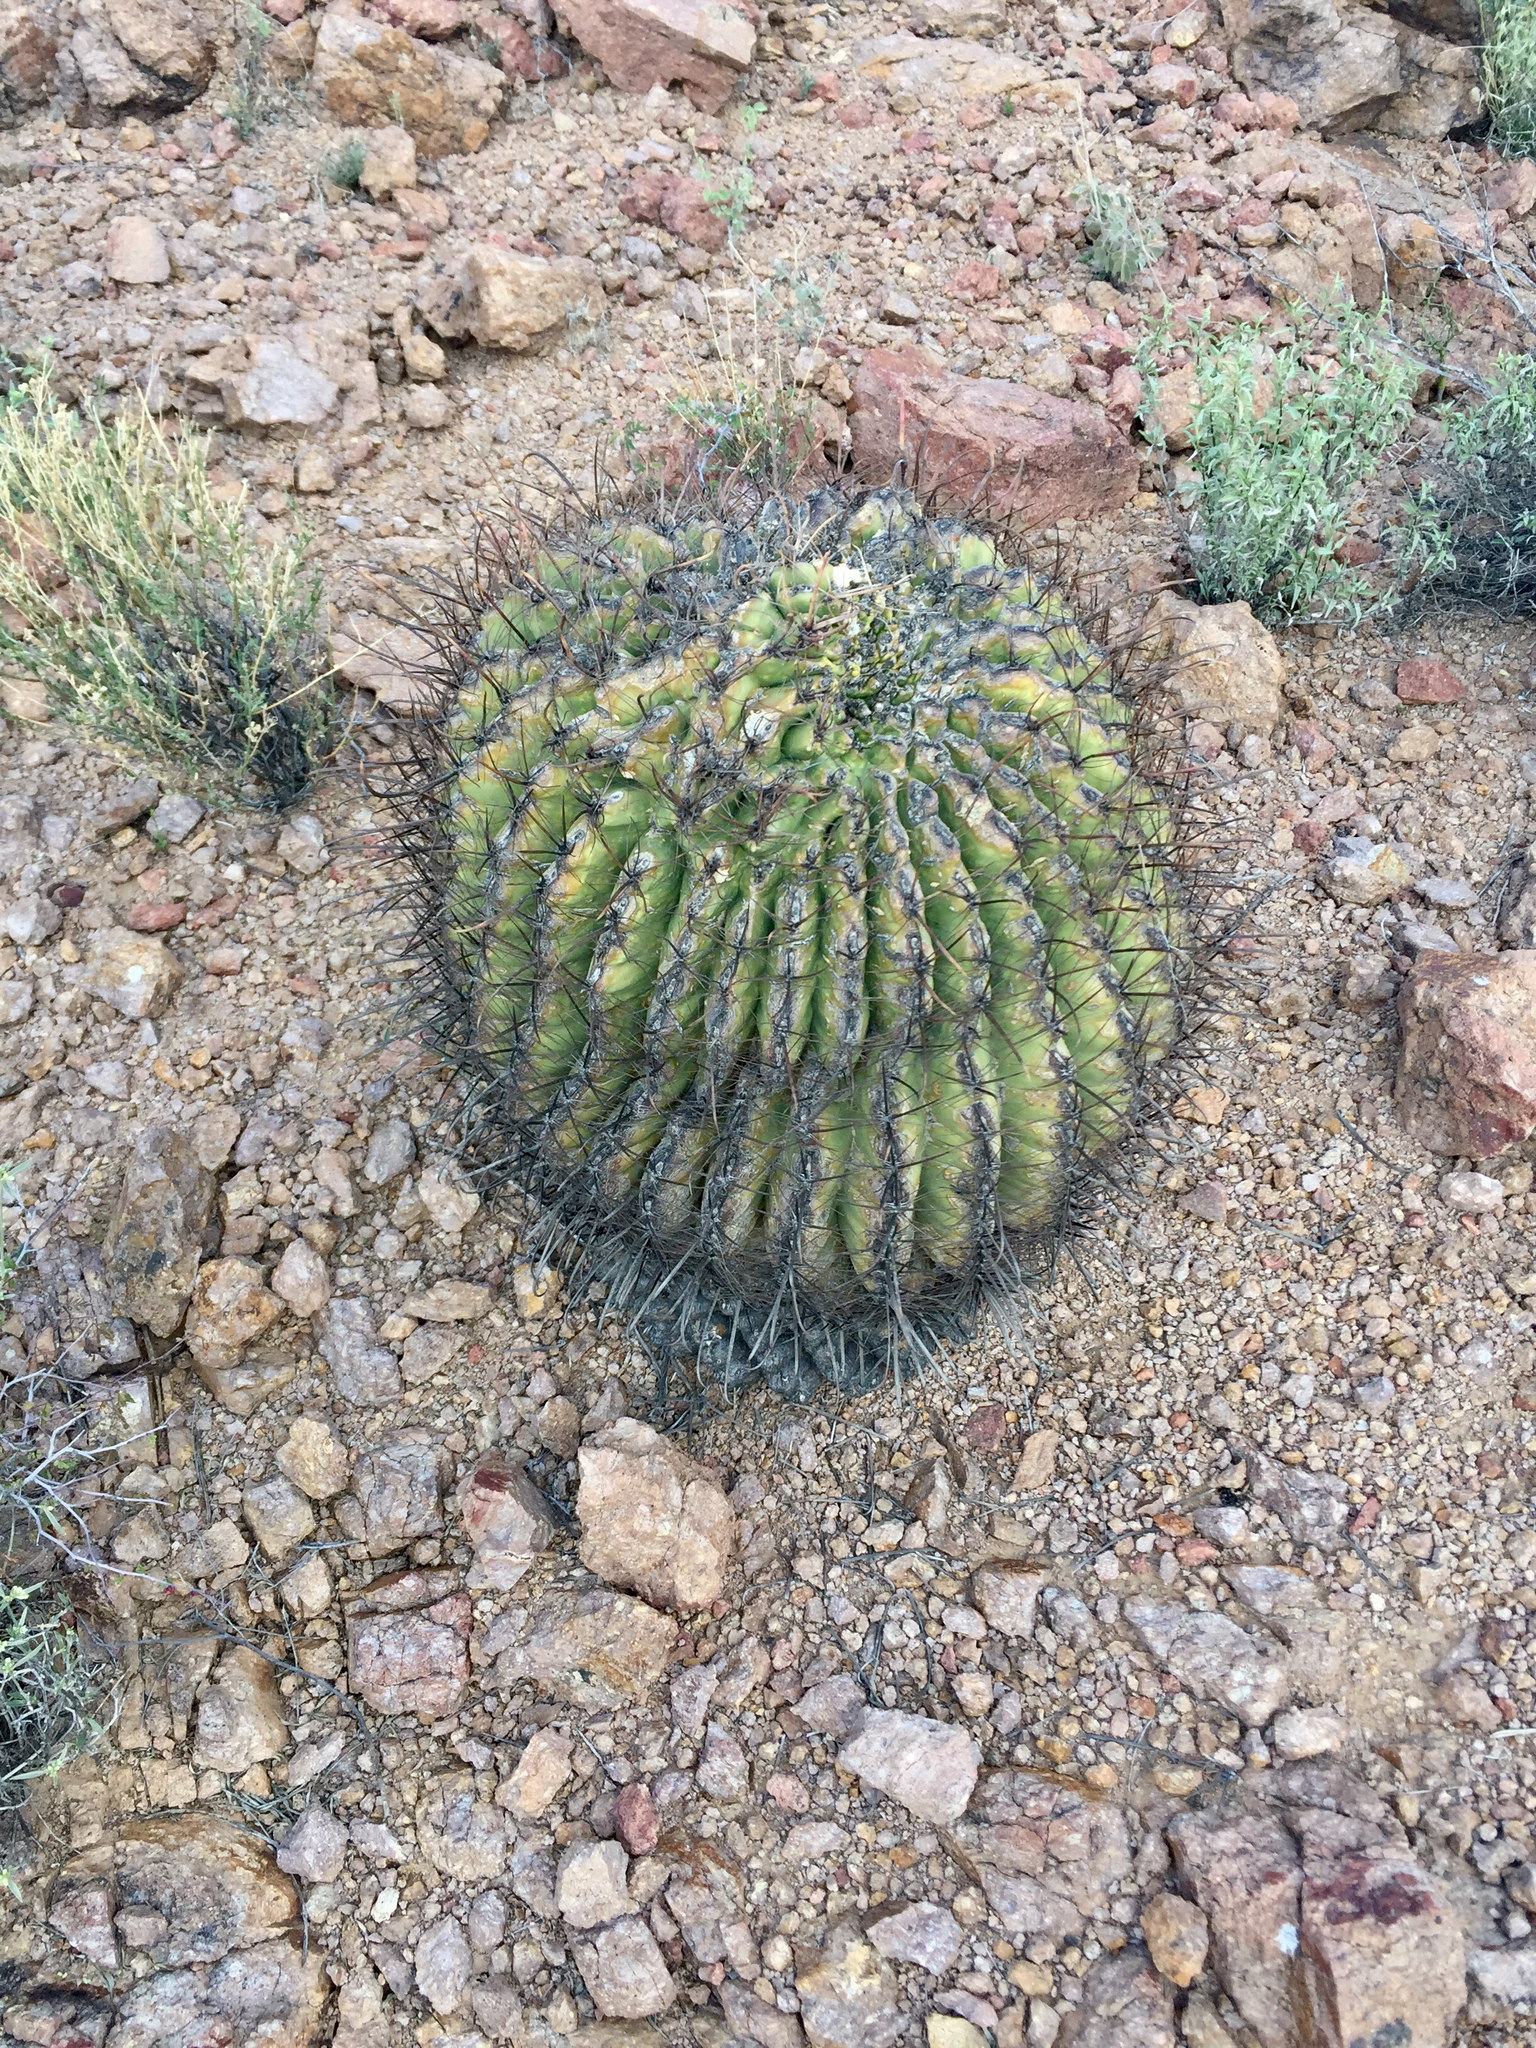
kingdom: Plantae
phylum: Tracheophyta
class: Magnoliopsida
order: Caryophyllales
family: Cactaceae
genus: Ferocactus
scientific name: Ferocactus wislizeni
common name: Candy barrel cactus
